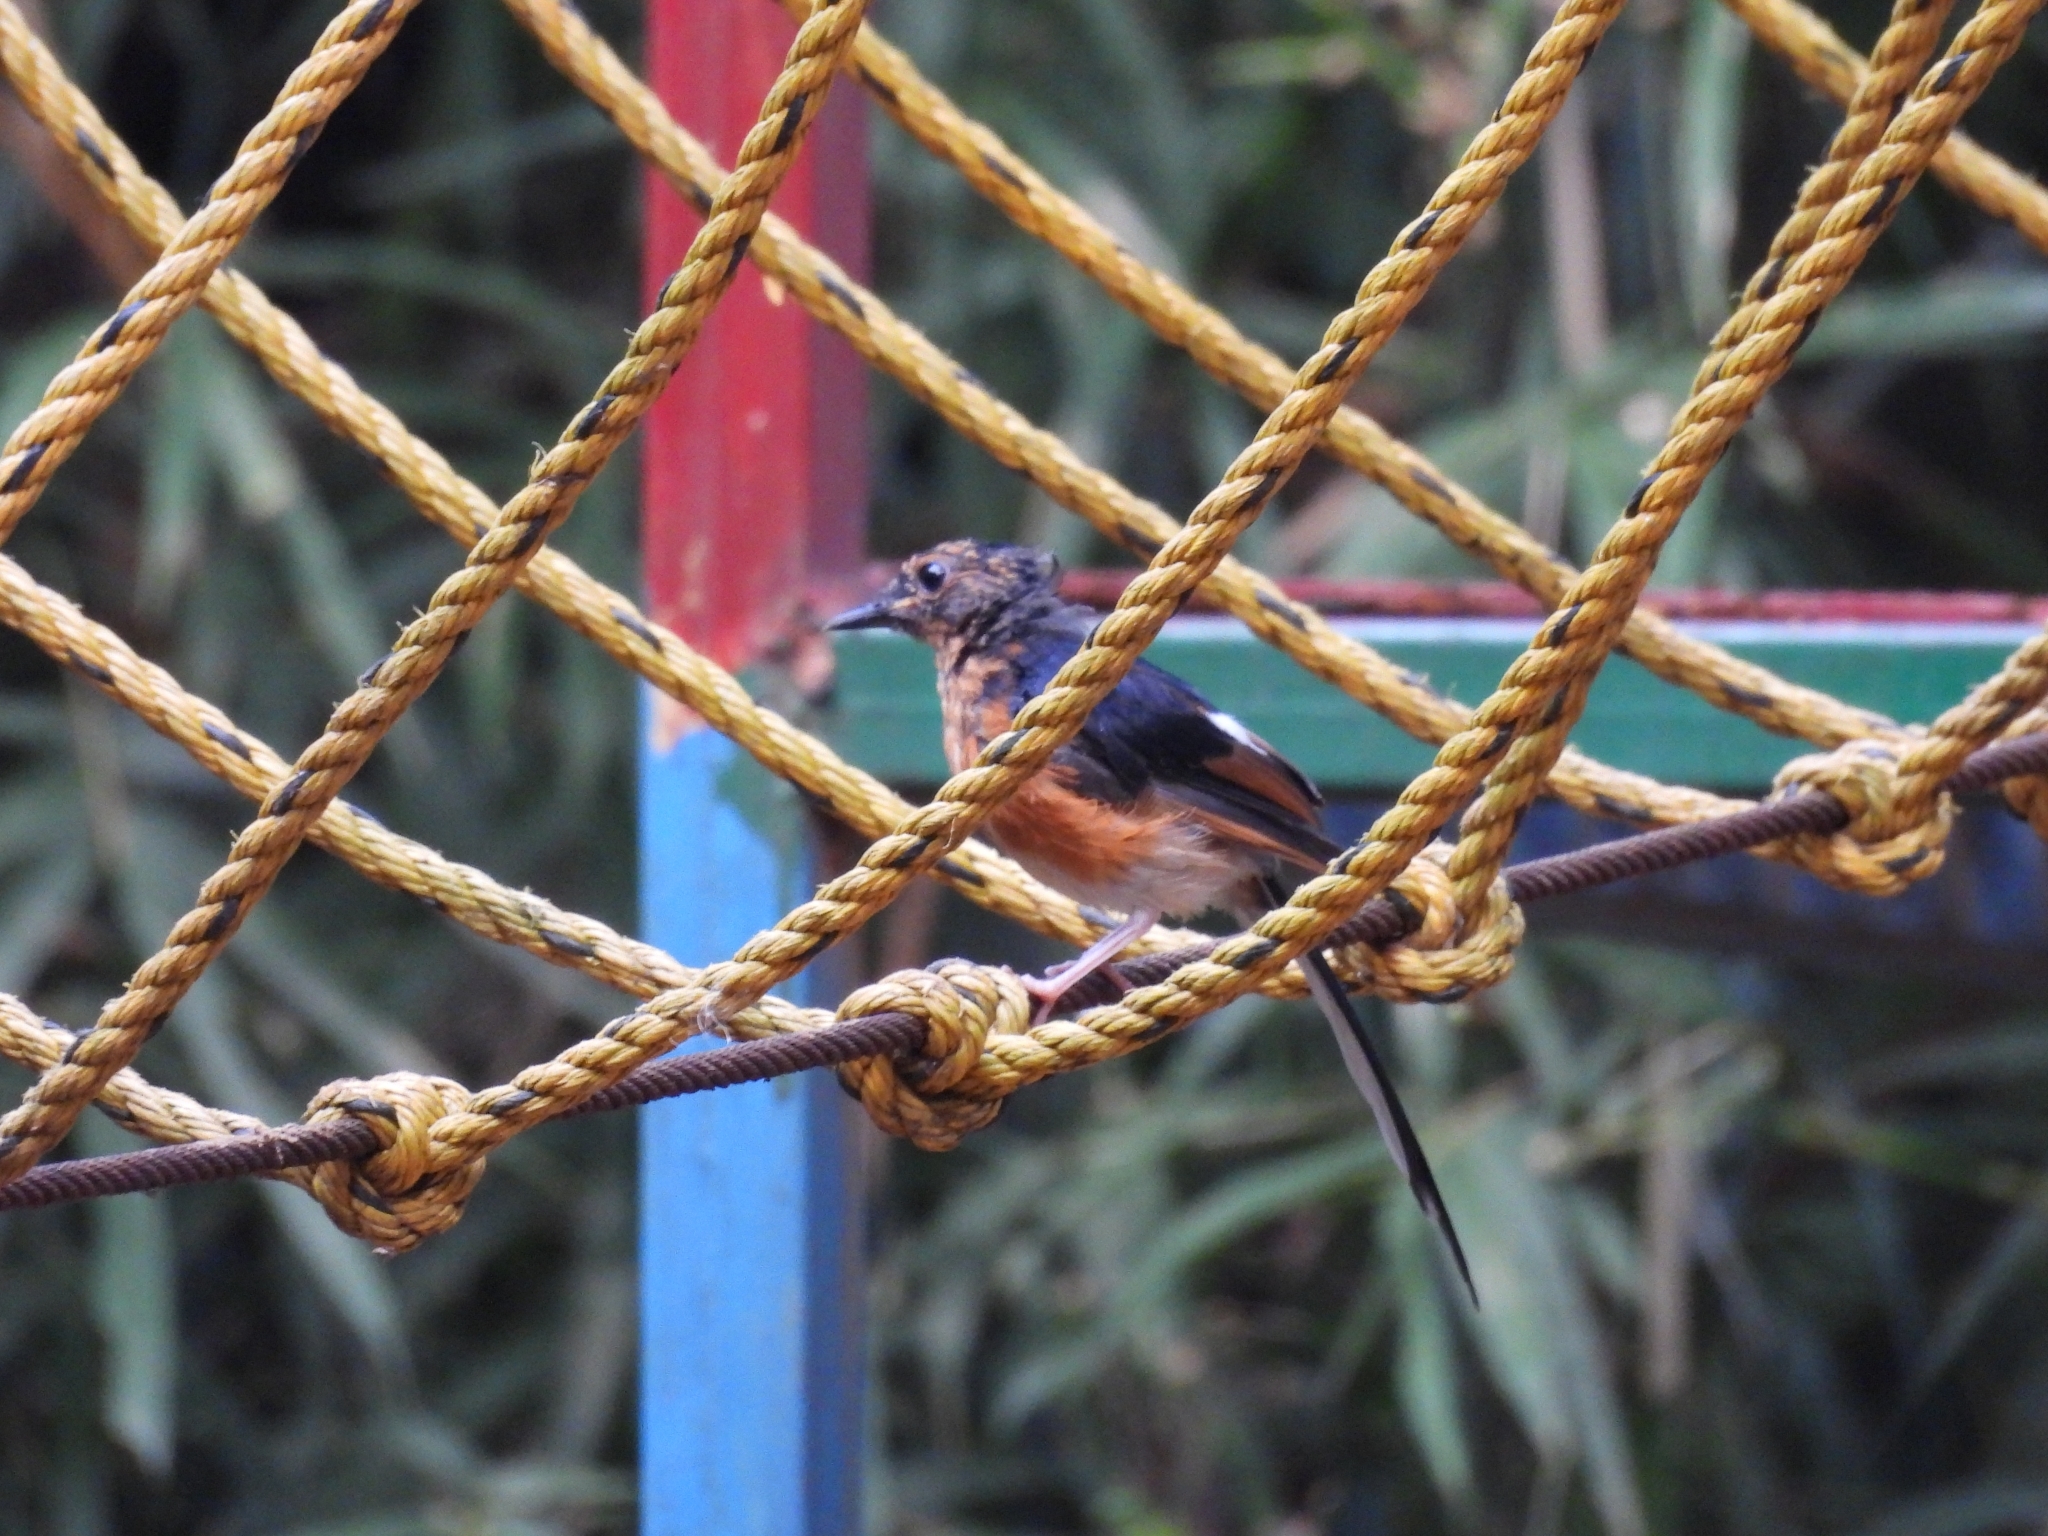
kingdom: Animalia
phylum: Chordata
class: Aves
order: Passeriformes
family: Muscicapidae
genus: Copsychus
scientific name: Copsychus malabaricus
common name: White-rumped shama
